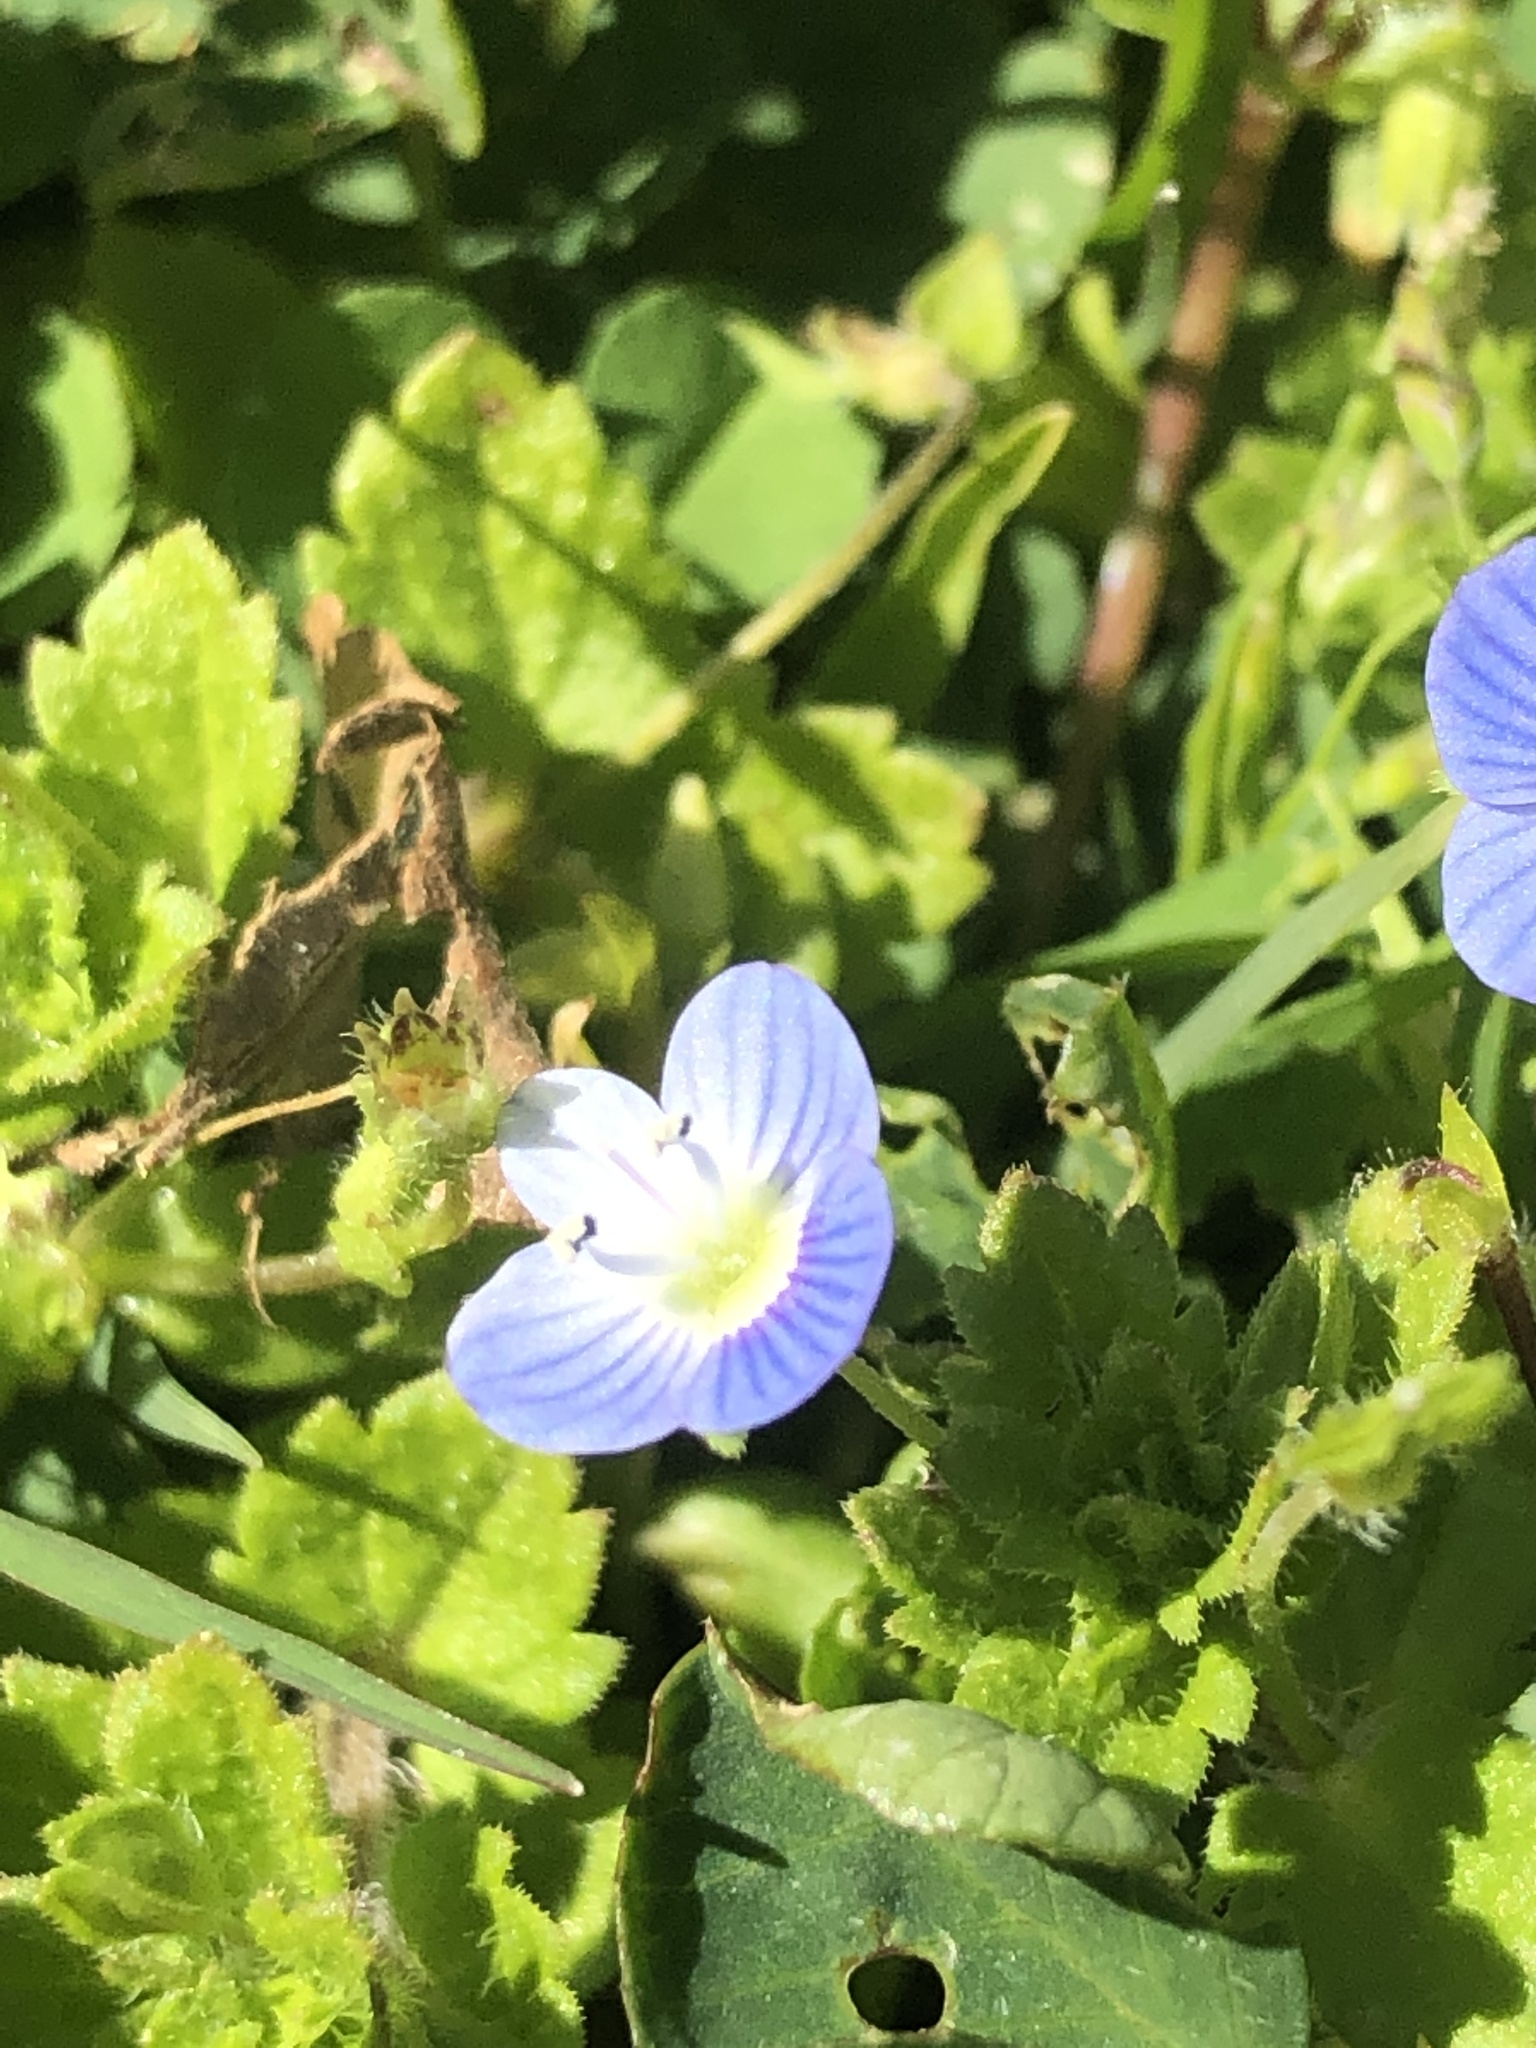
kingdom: Plantae
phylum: Tracheophyta
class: Magnoliopsida
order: Lamiales
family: Plantaginaceae
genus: Veronica
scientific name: Veronica persica
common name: Common field-speedwell
